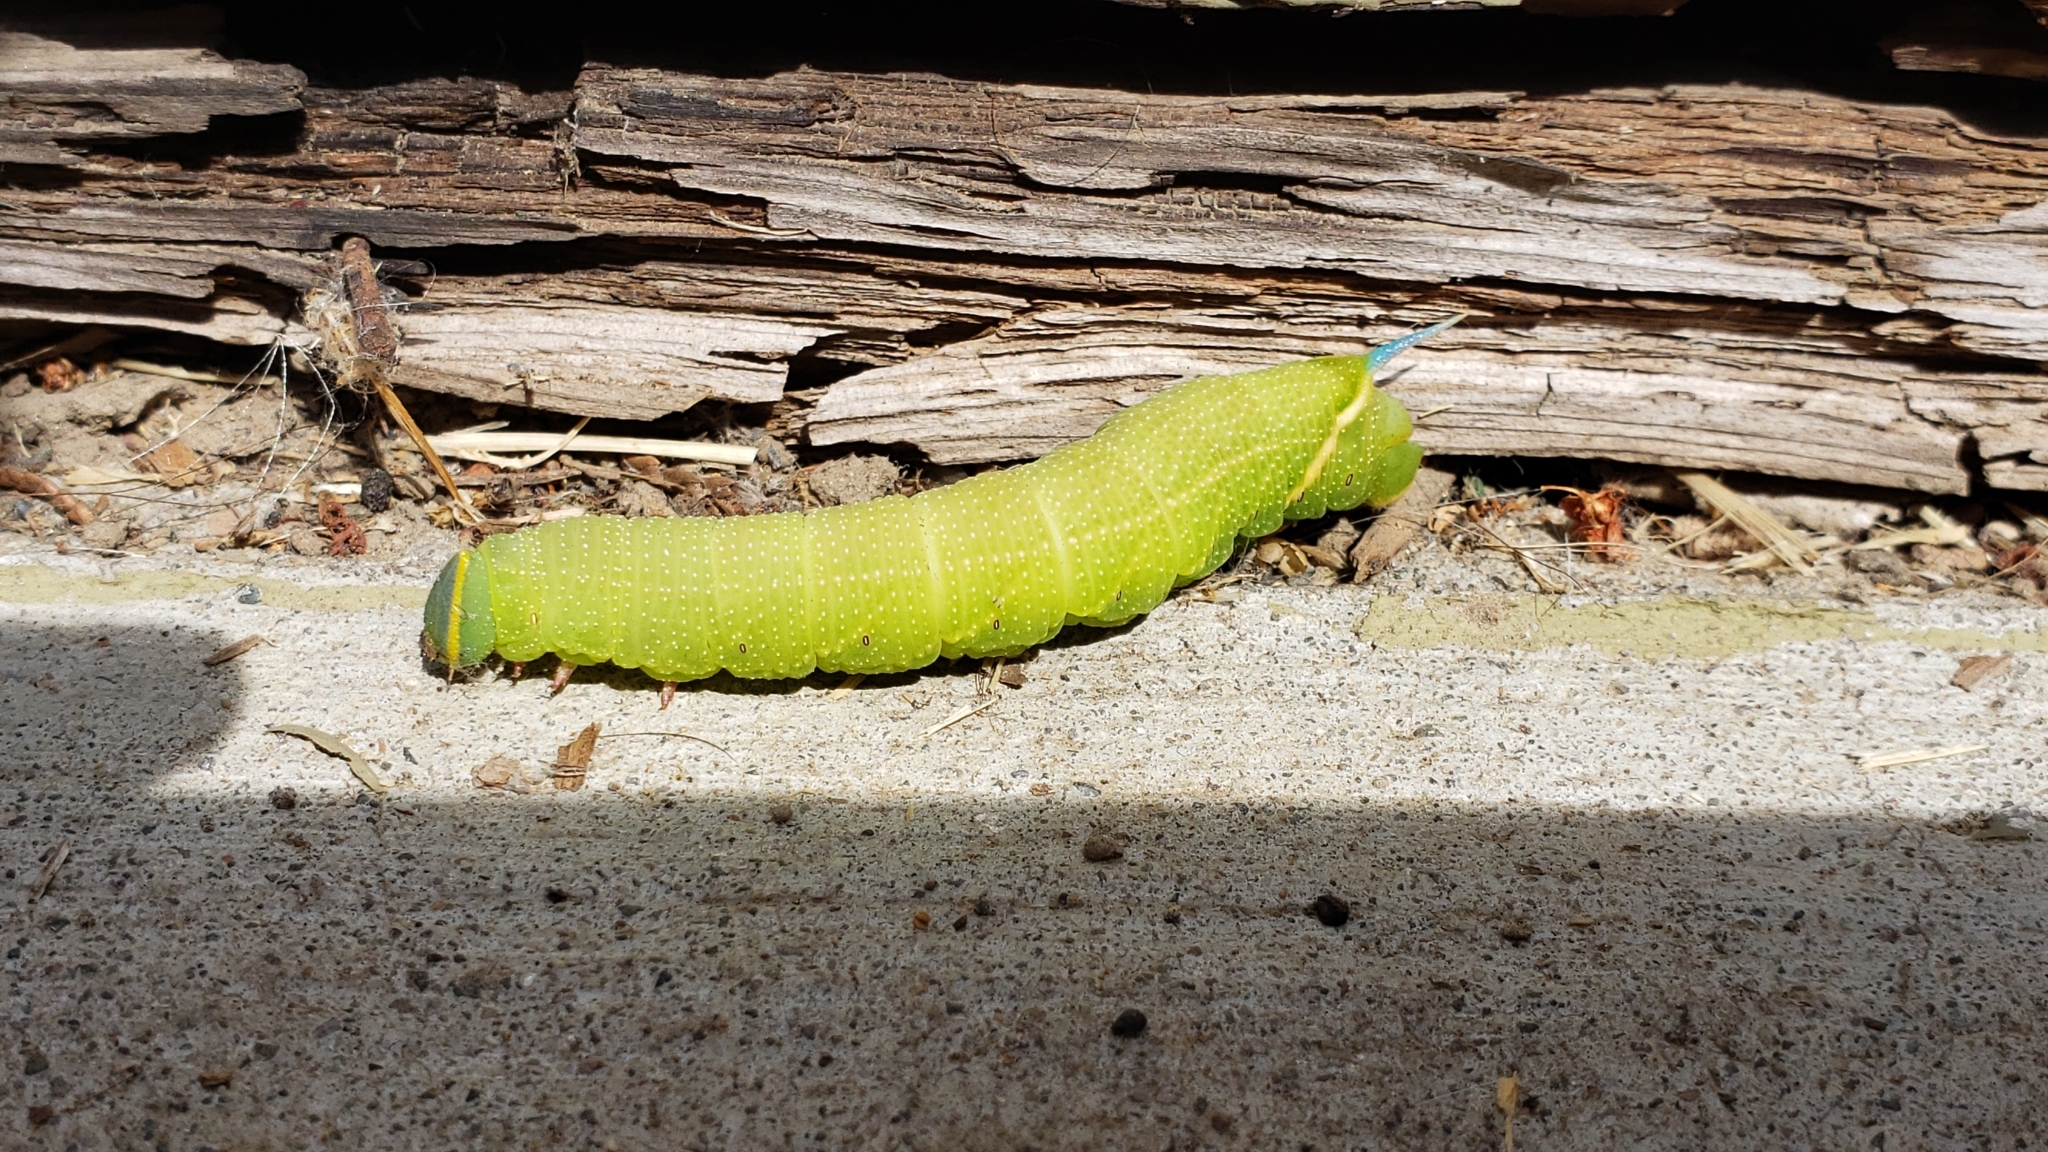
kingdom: Animalia
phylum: Arthropoda
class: Insecta
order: Lepidoptera
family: Sphingidae
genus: Smerinthus
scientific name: Smerinthus cerisyi
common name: Cerisy's sphinx moth
